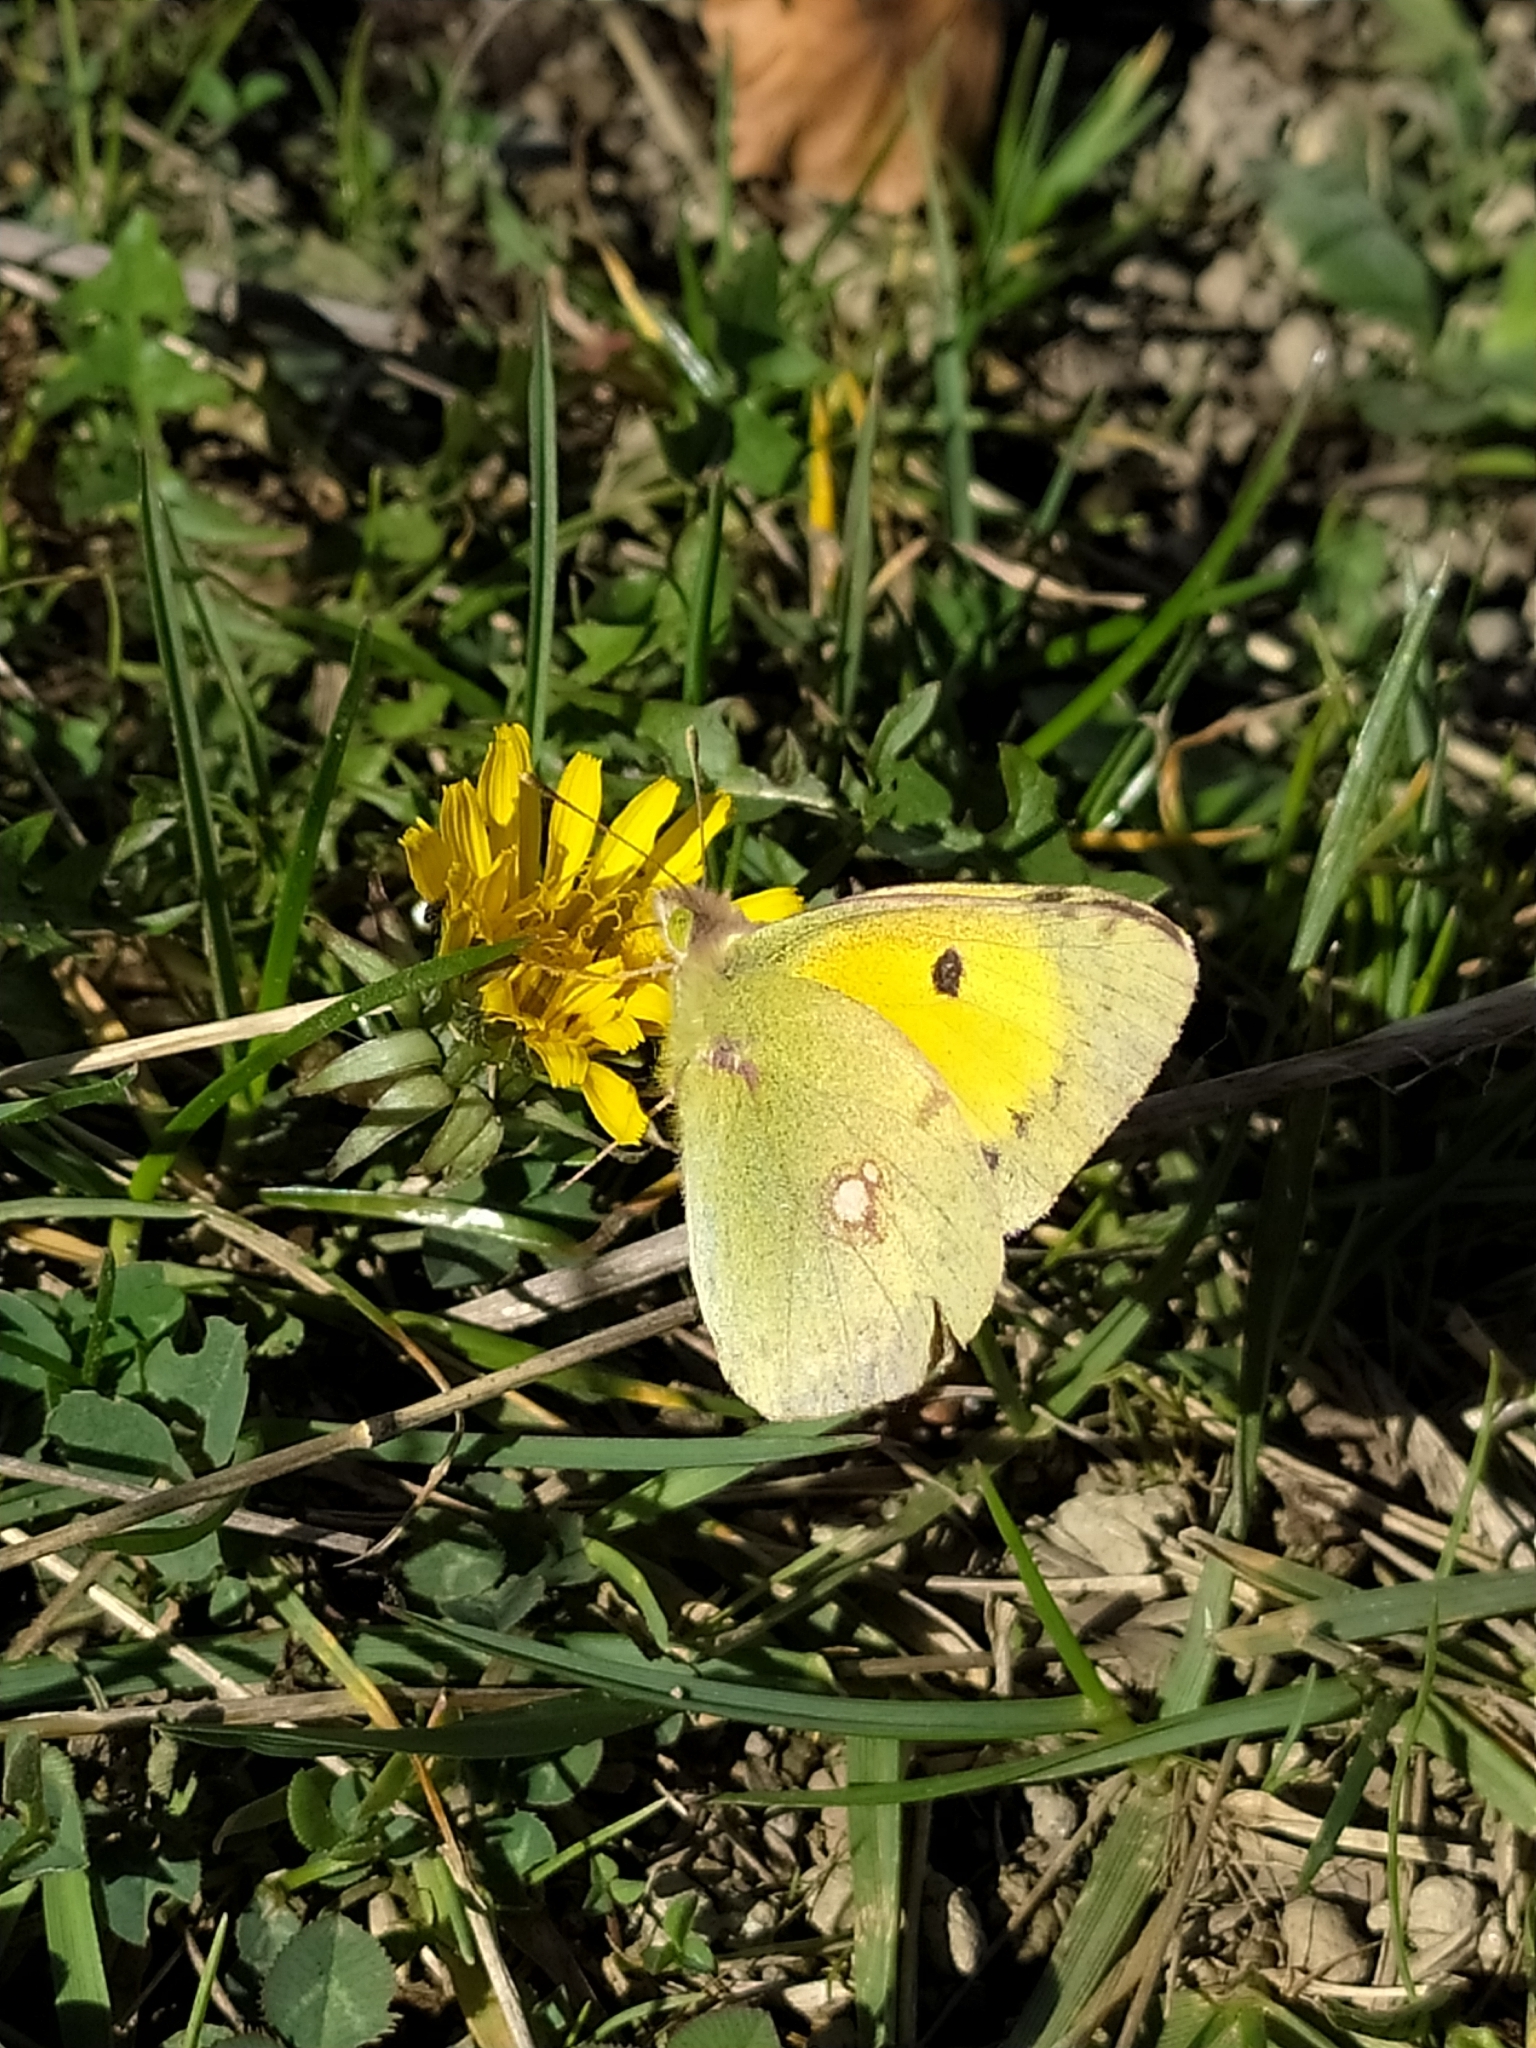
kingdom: Animalia
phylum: Arthropoda
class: Insecta
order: Lepidoptera
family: Pieridae
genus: Colias
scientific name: Colias croceus
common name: Clouded yellow
